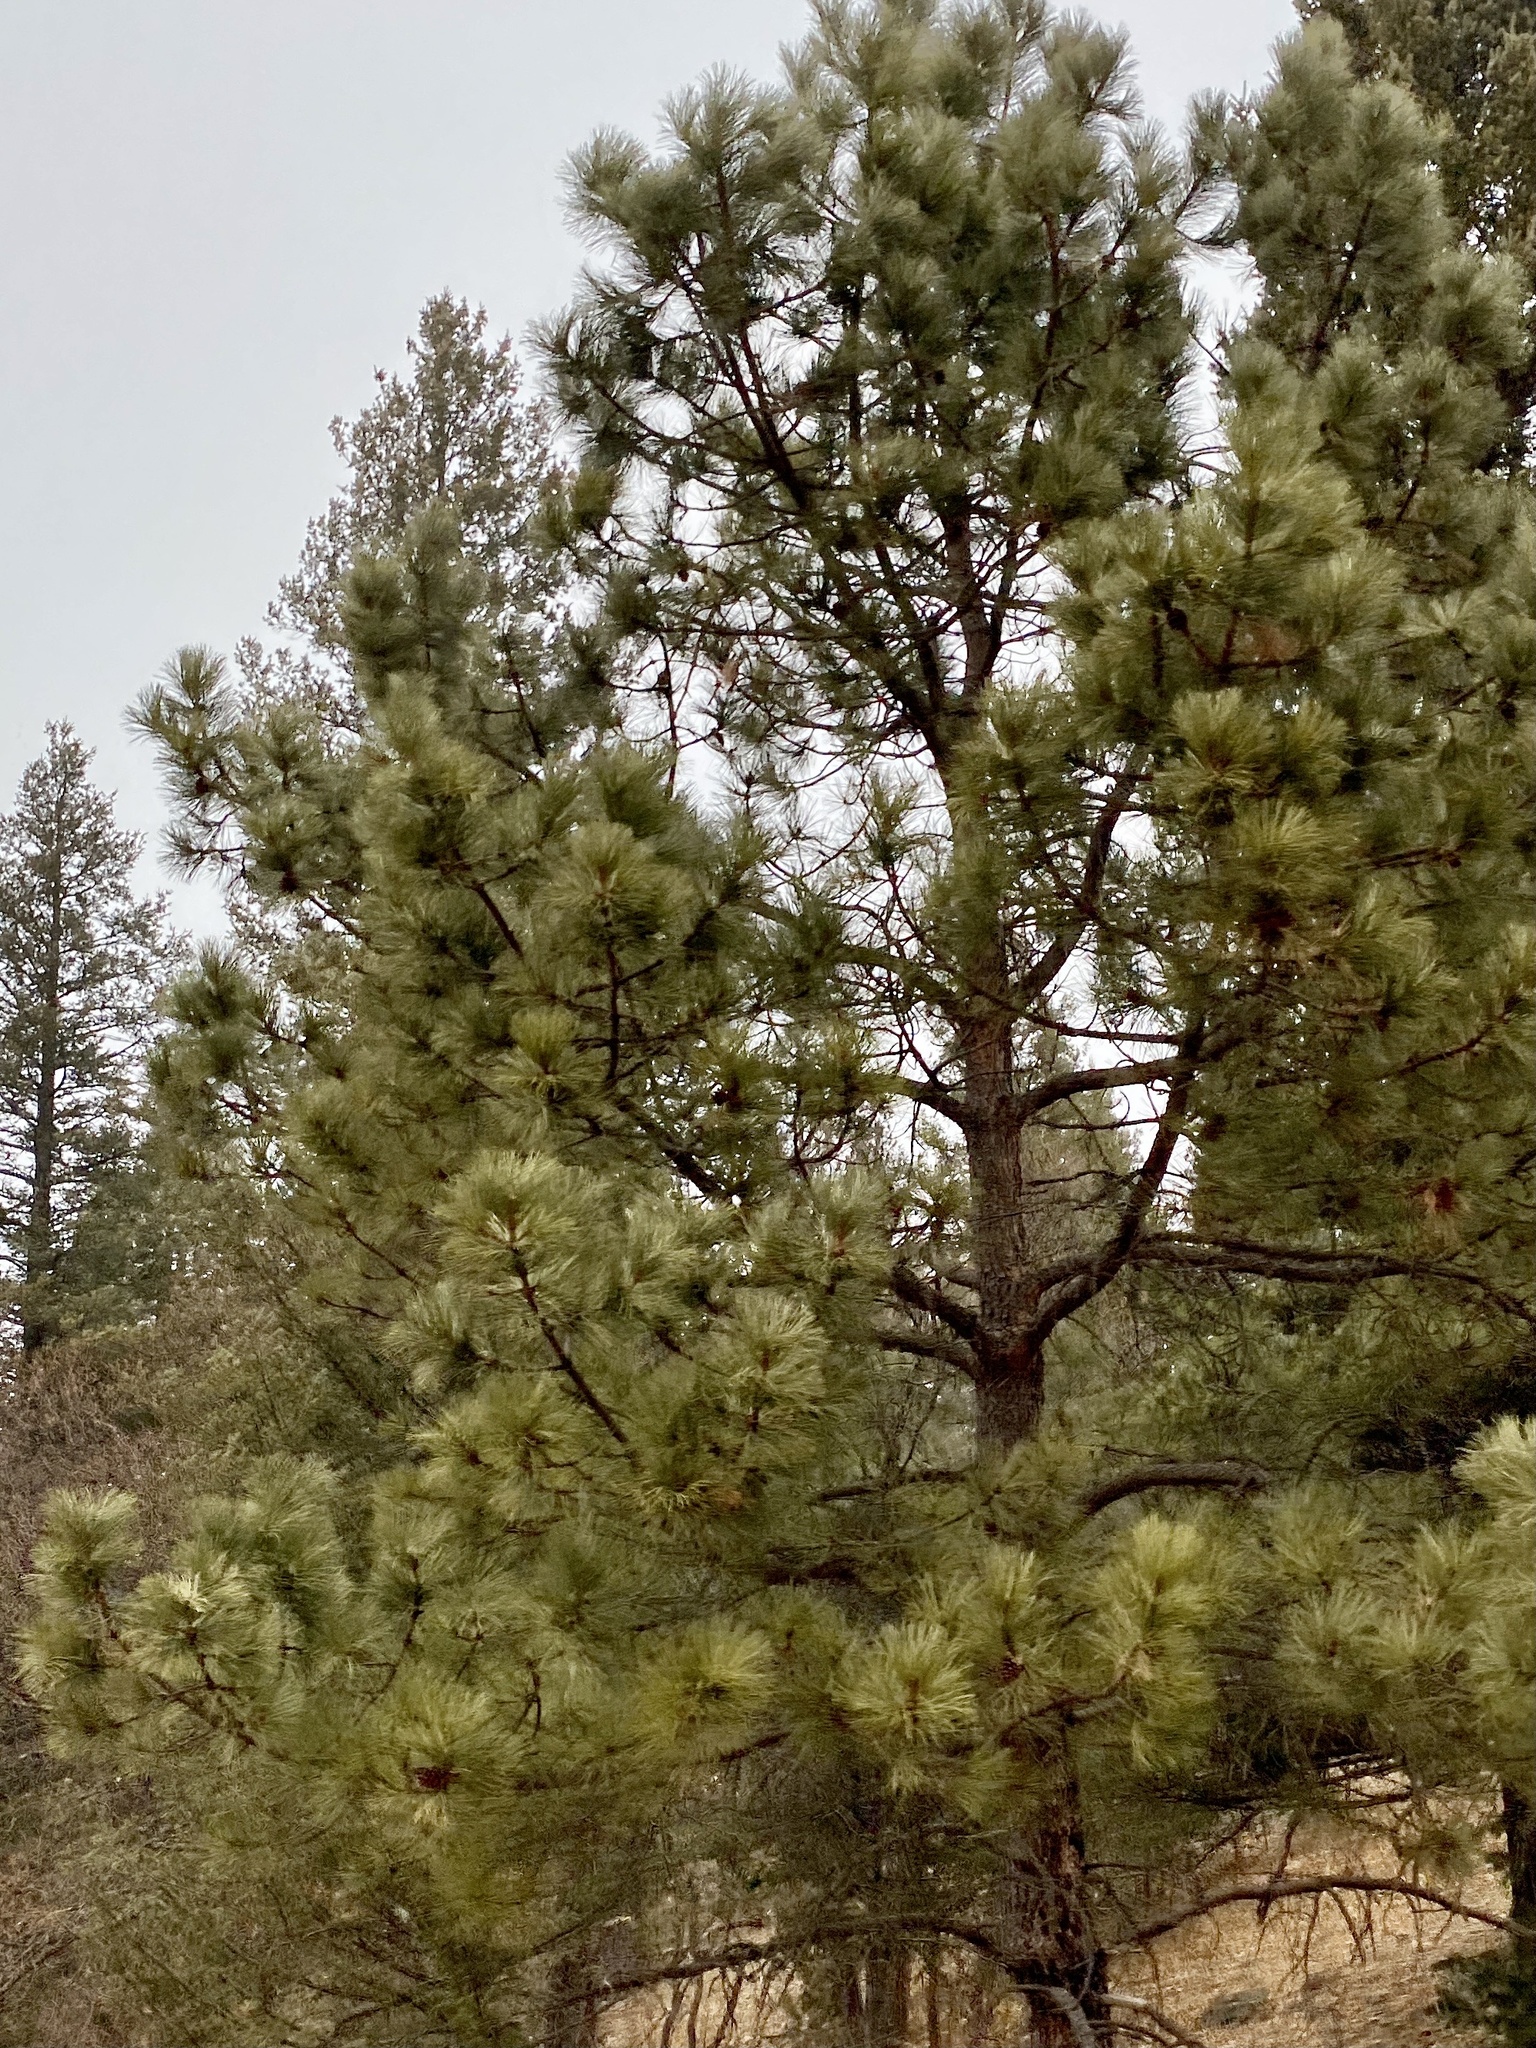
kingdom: Plantae
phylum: Tracheophyta
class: Pinopsida
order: Pinales
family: Pinaceae
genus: Pinus
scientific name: Pinus ponderosa
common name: Western yellow-pine
